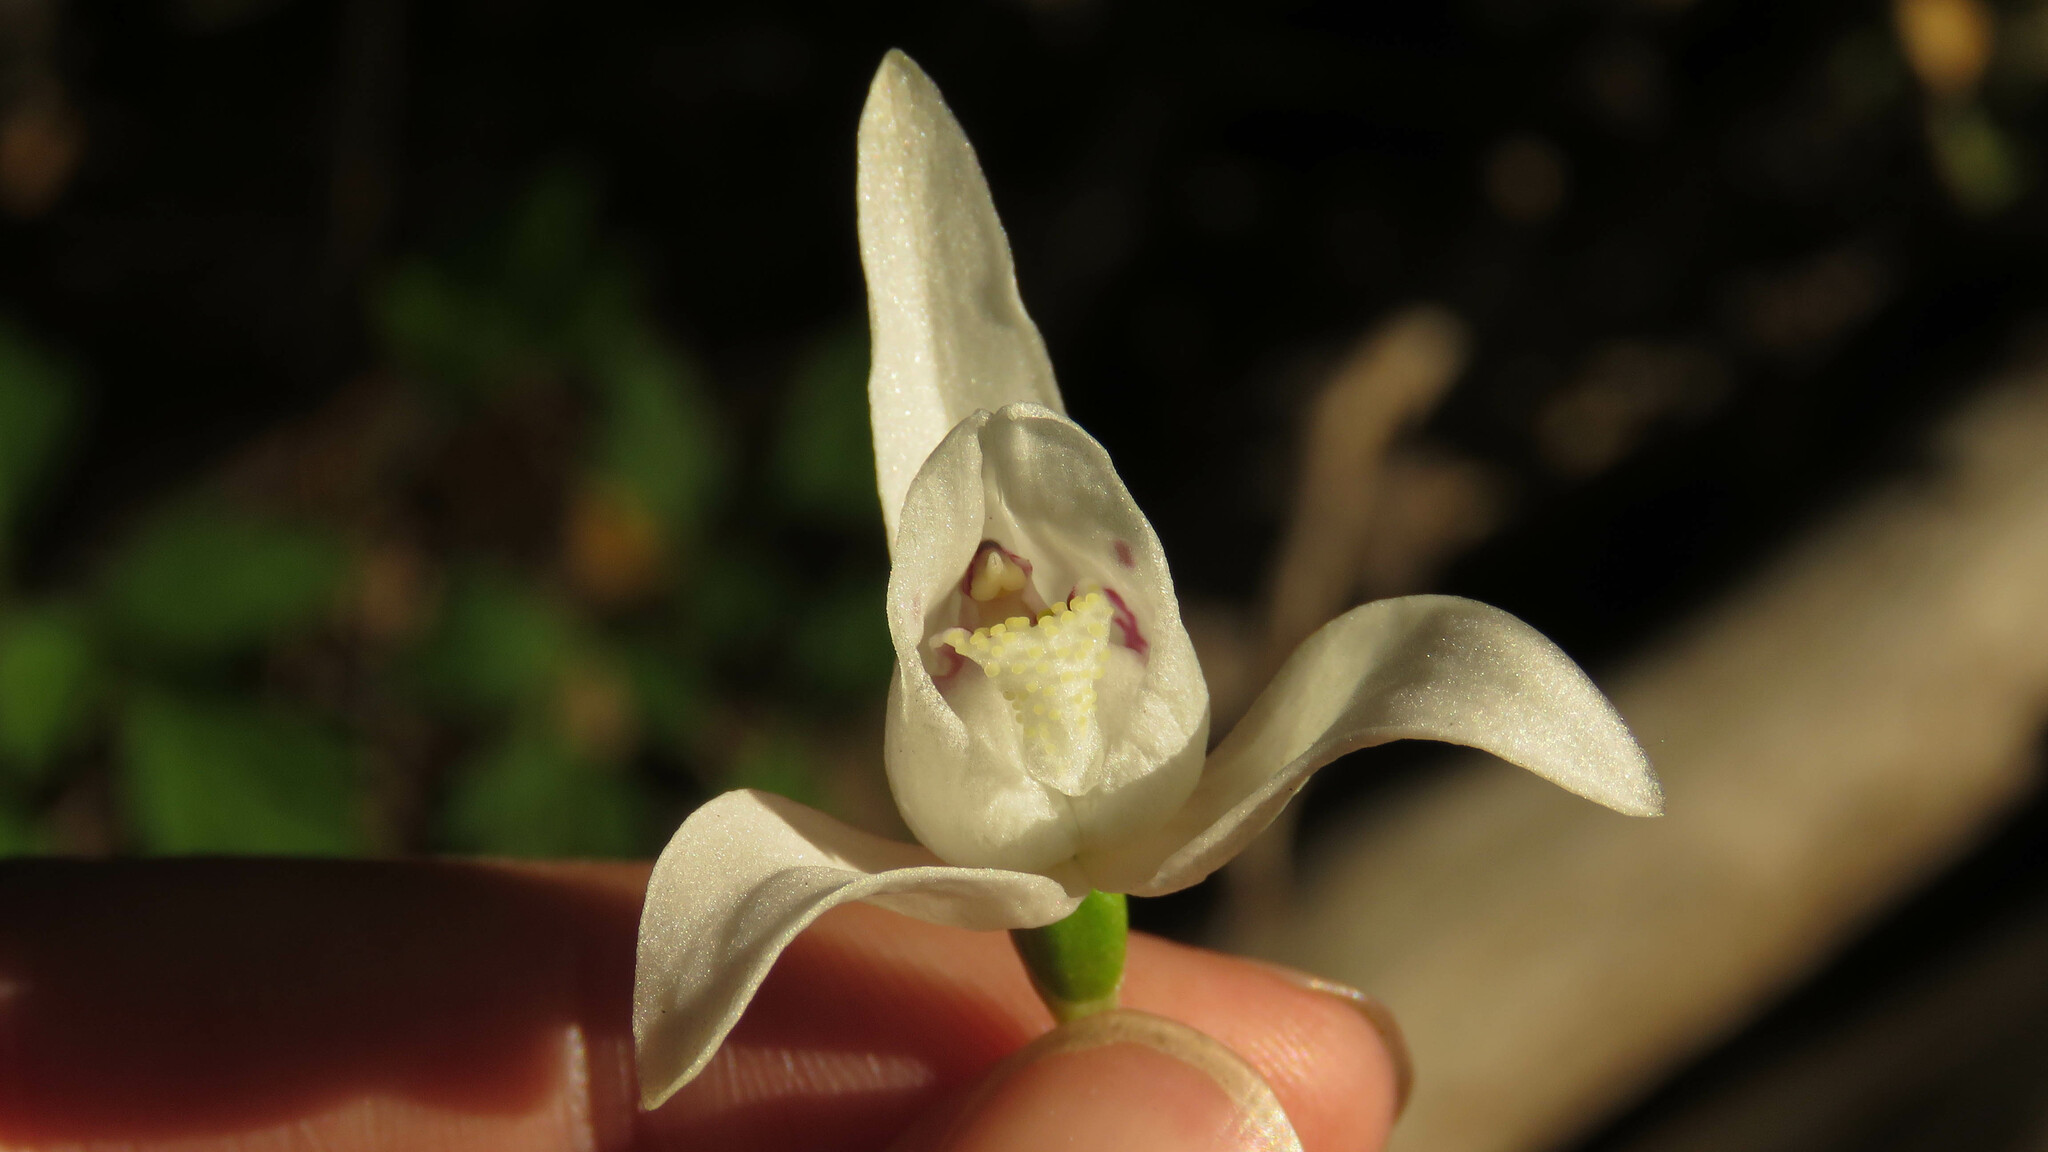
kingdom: Plantae
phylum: Tracheophyta
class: Liliopsida
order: Asparagales
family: Orchidaceae
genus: Codonorchis
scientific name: Codonorchis lessonii
